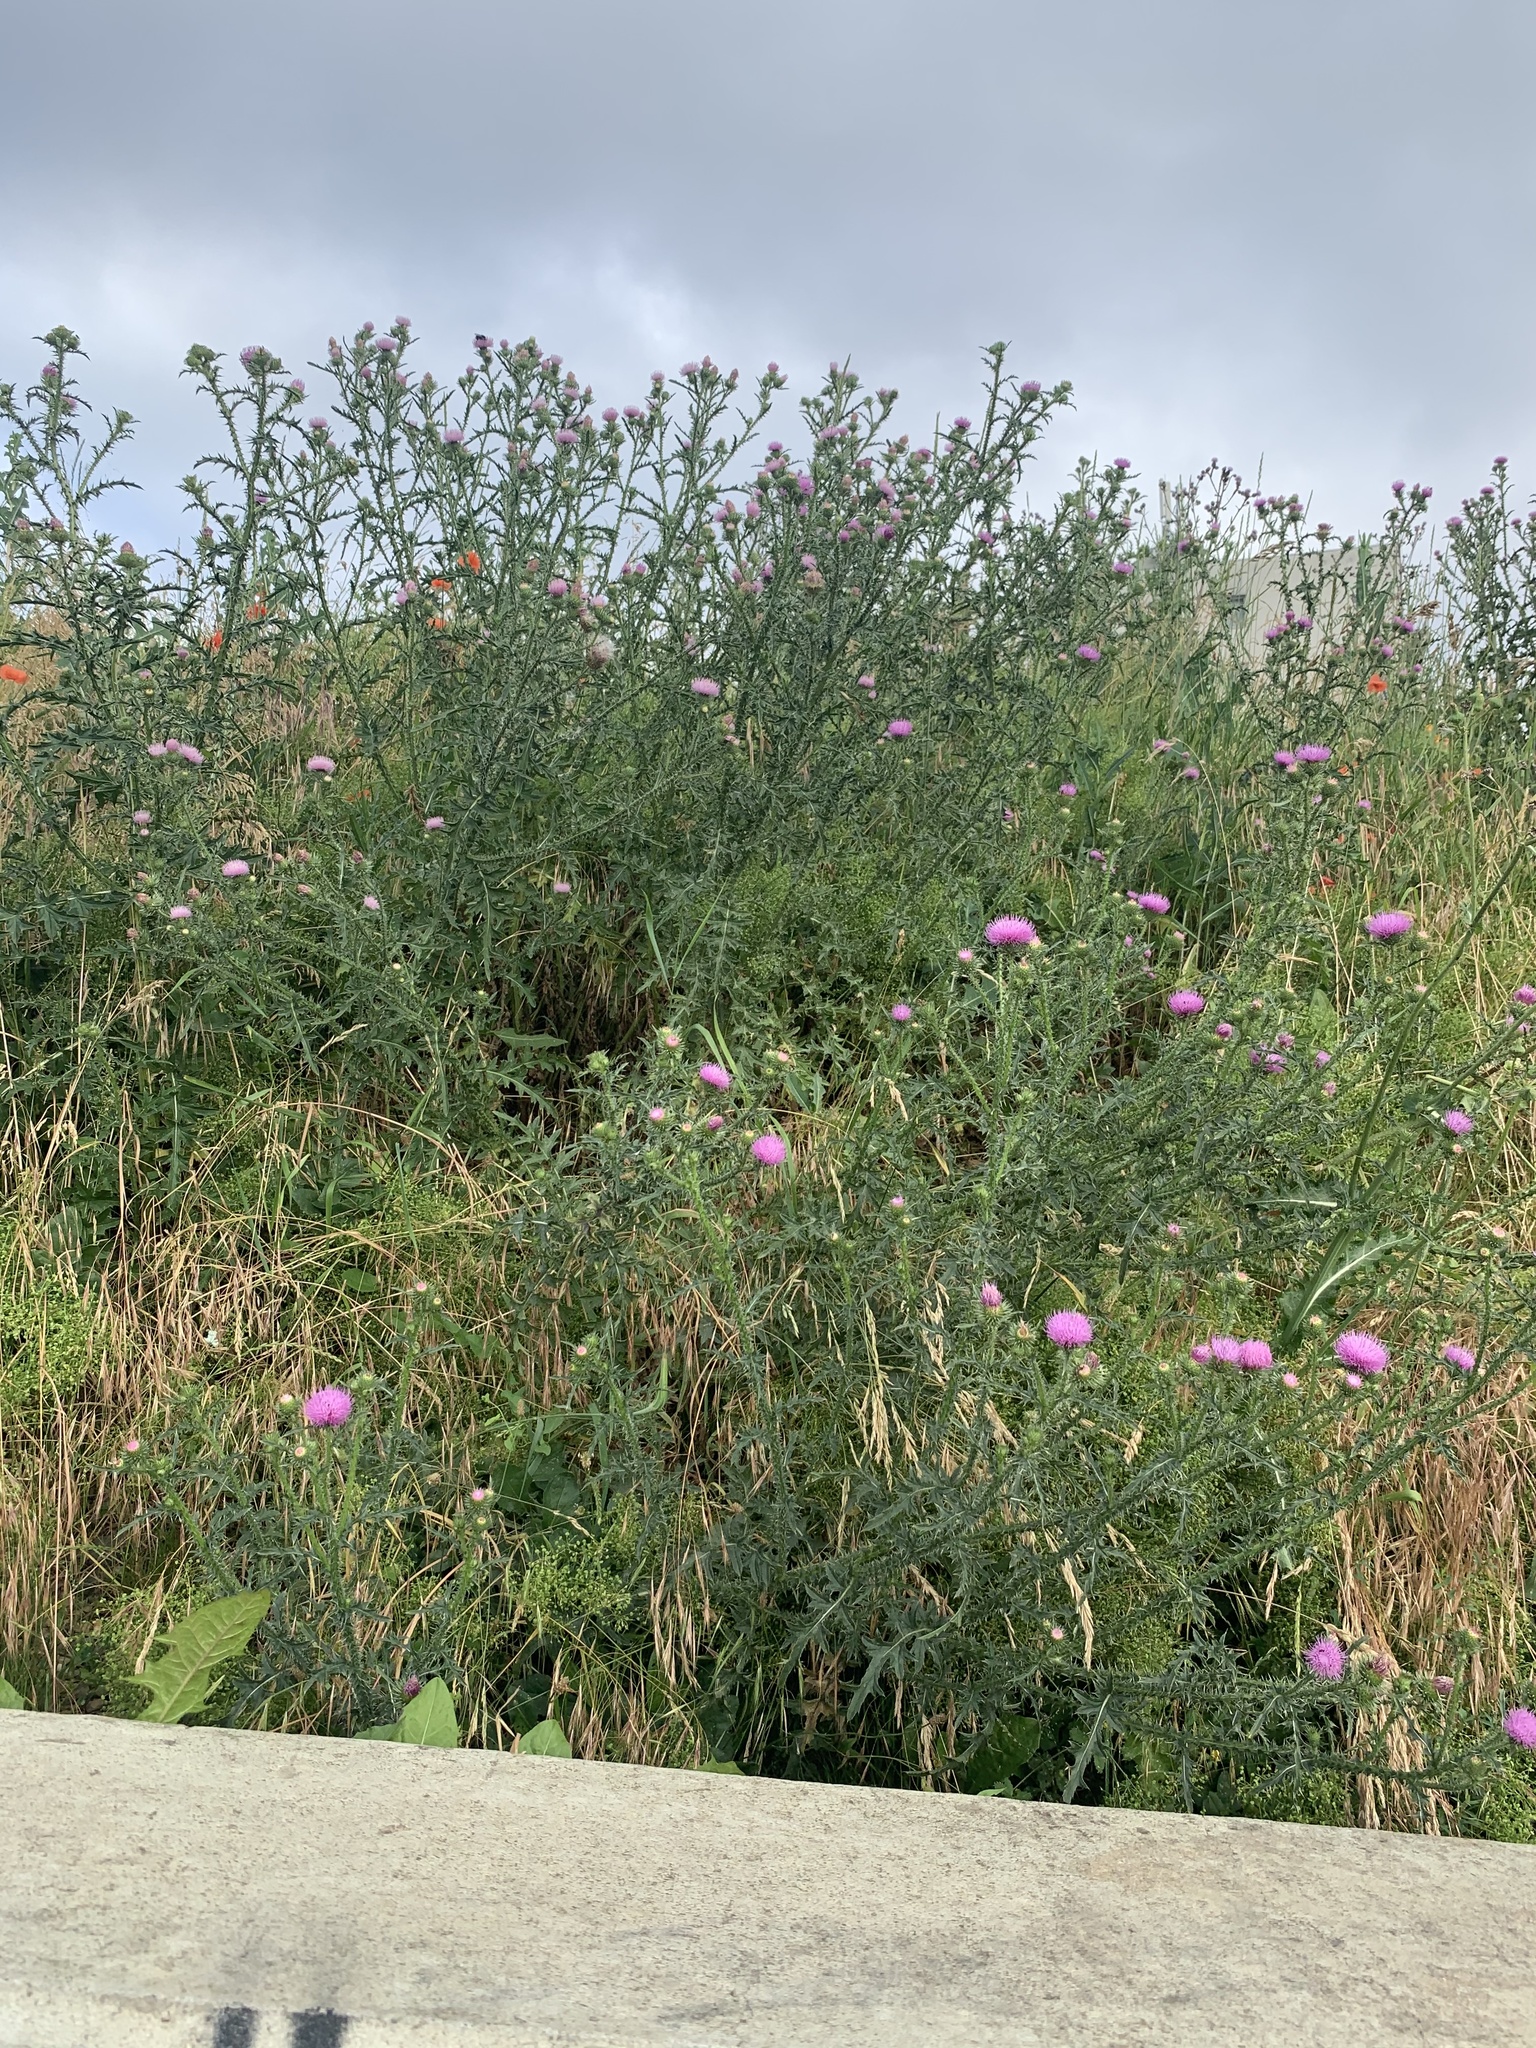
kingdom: Plantae
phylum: Tracheophyta
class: Magnoliopsida
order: Asterales
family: Asteraceae
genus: Carduus
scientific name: Carduus acanthoides
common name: Plumeless thistle
